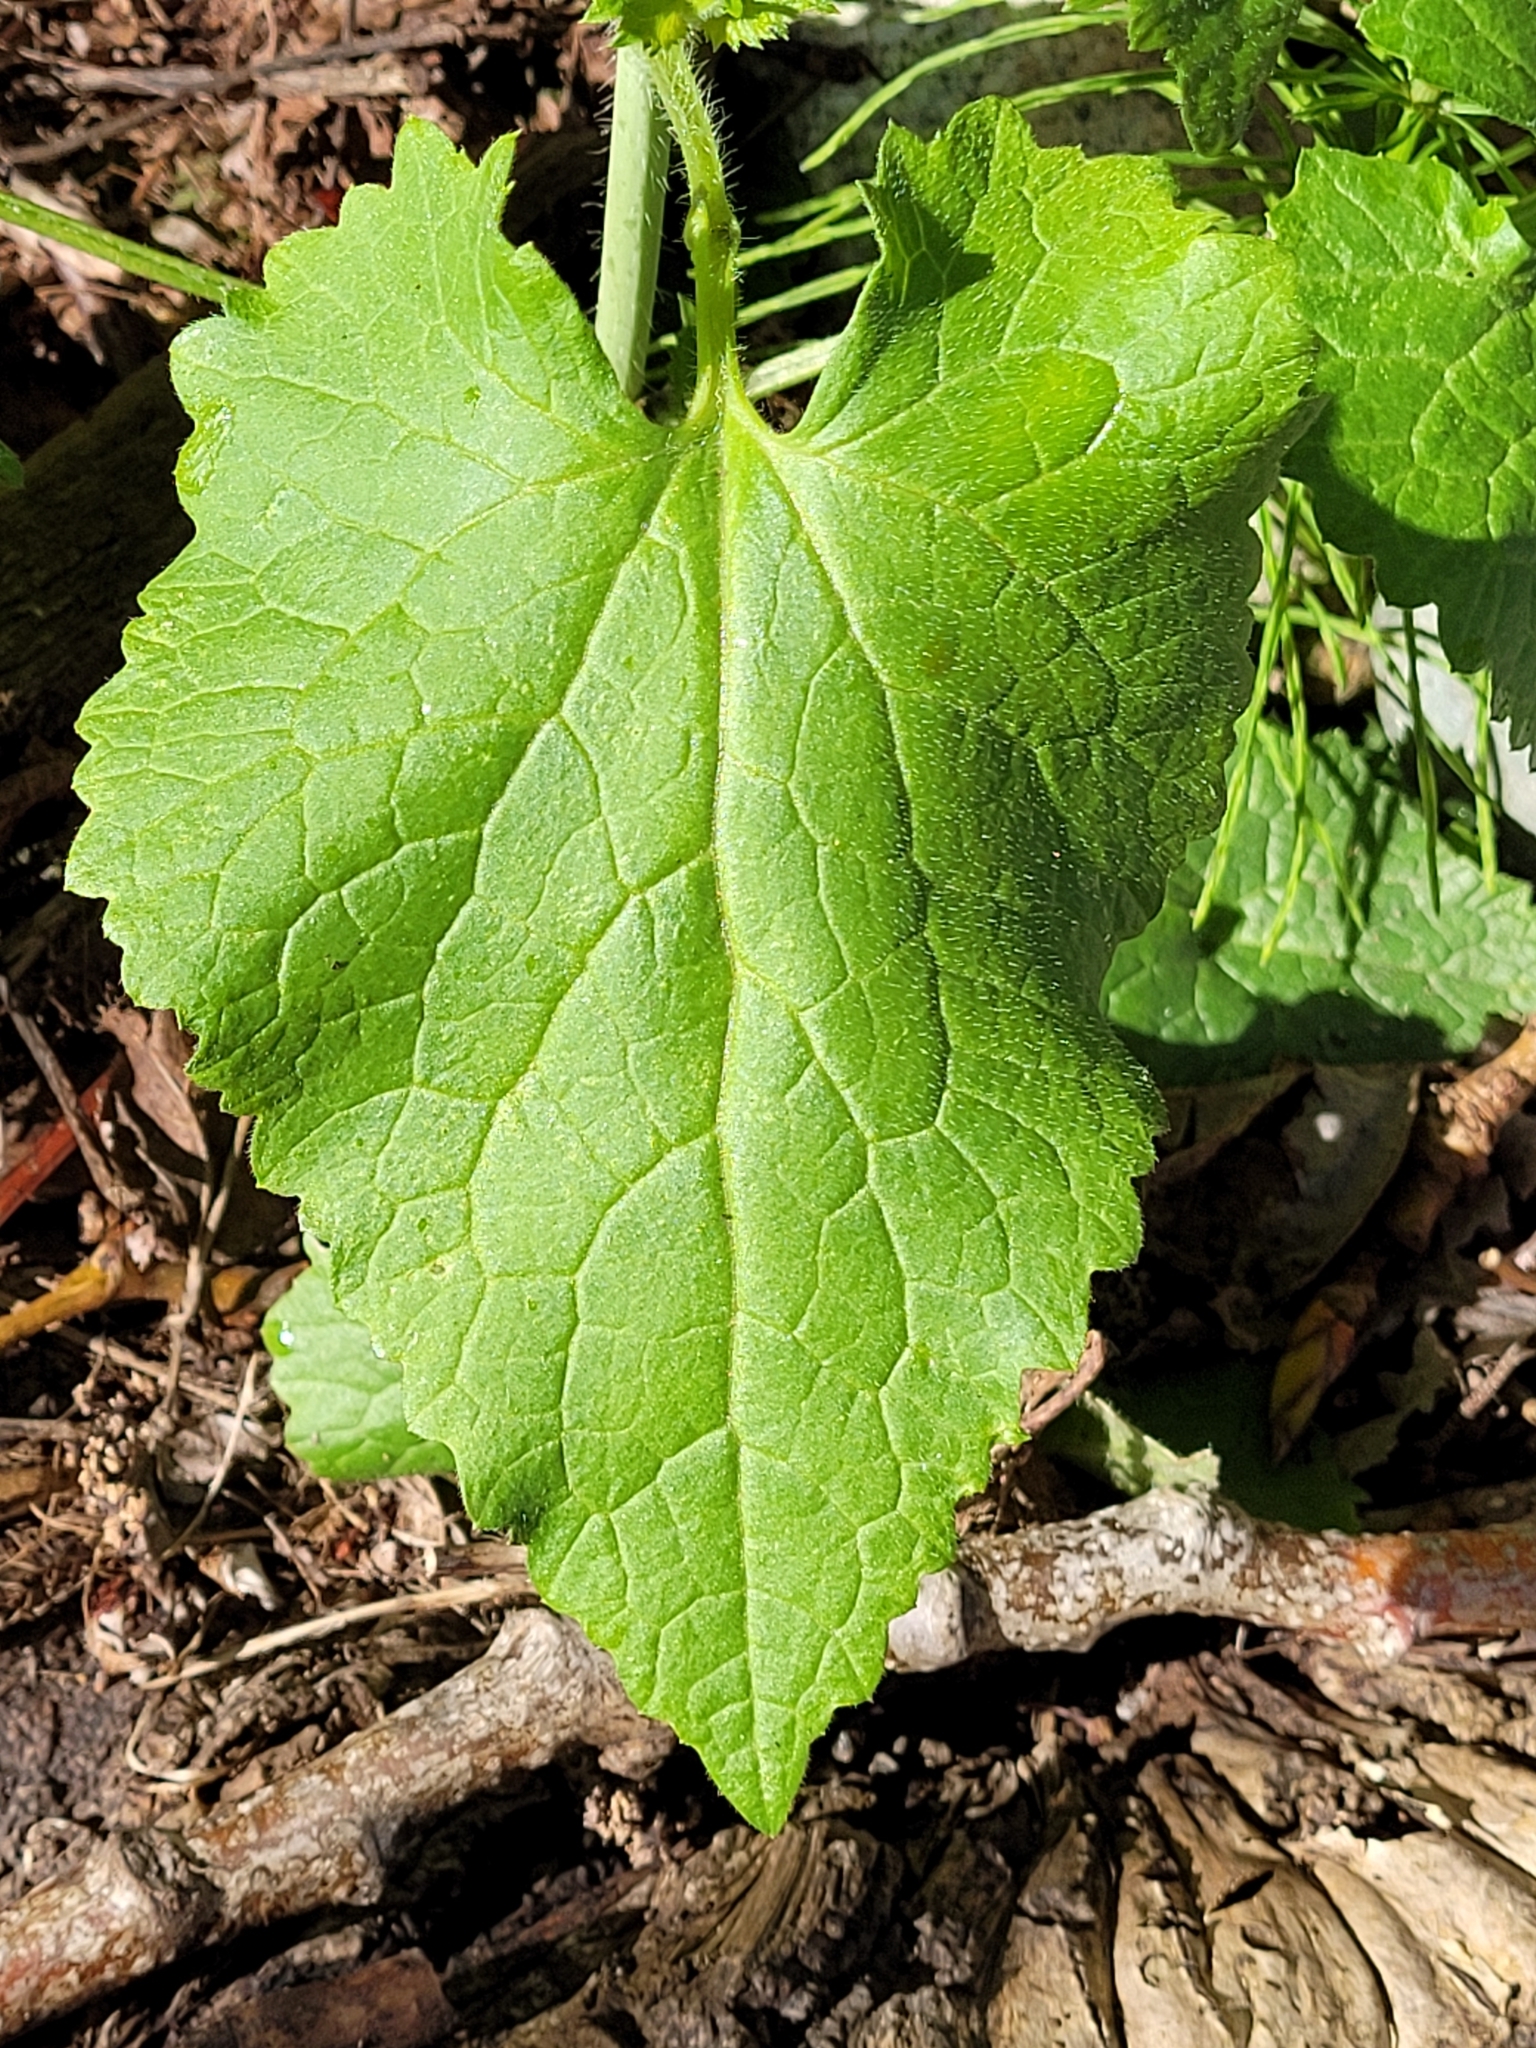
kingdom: Plantae
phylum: Tracheophyta
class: Magnoliopsida
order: Brassicales
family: Brassicaceae
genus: Lunaria
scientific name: Lunaria annua
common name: Honesty
